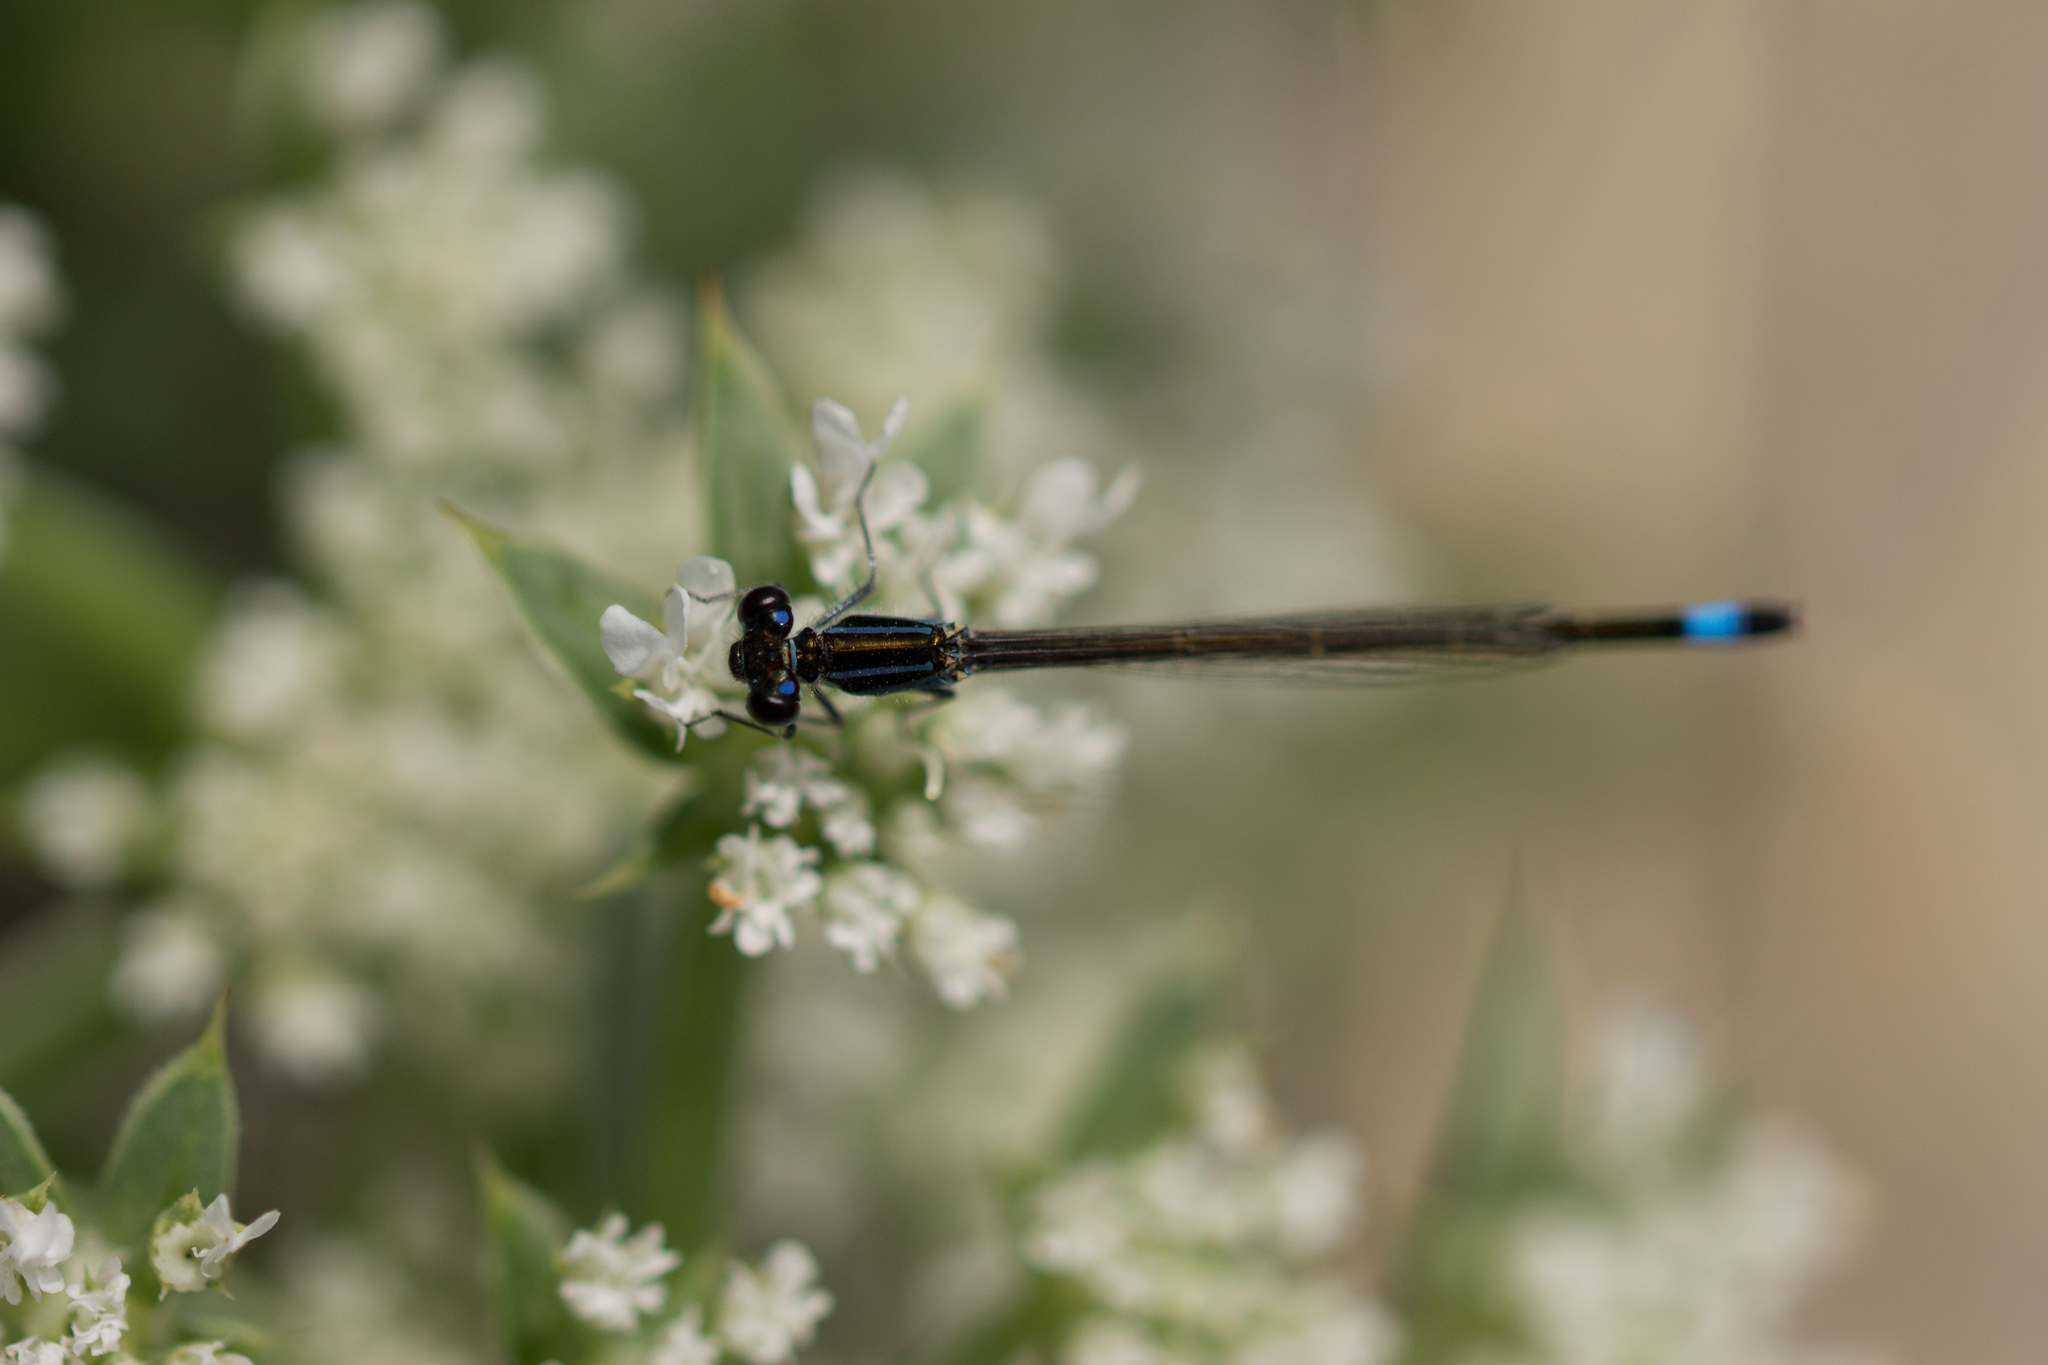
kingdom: Animalia
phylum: Arthropoda
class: Insecta
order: Odonata
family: Coenagrionidae
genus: Ischnura
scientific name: Ischnura elegans
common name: Blue-tailed damselfly
